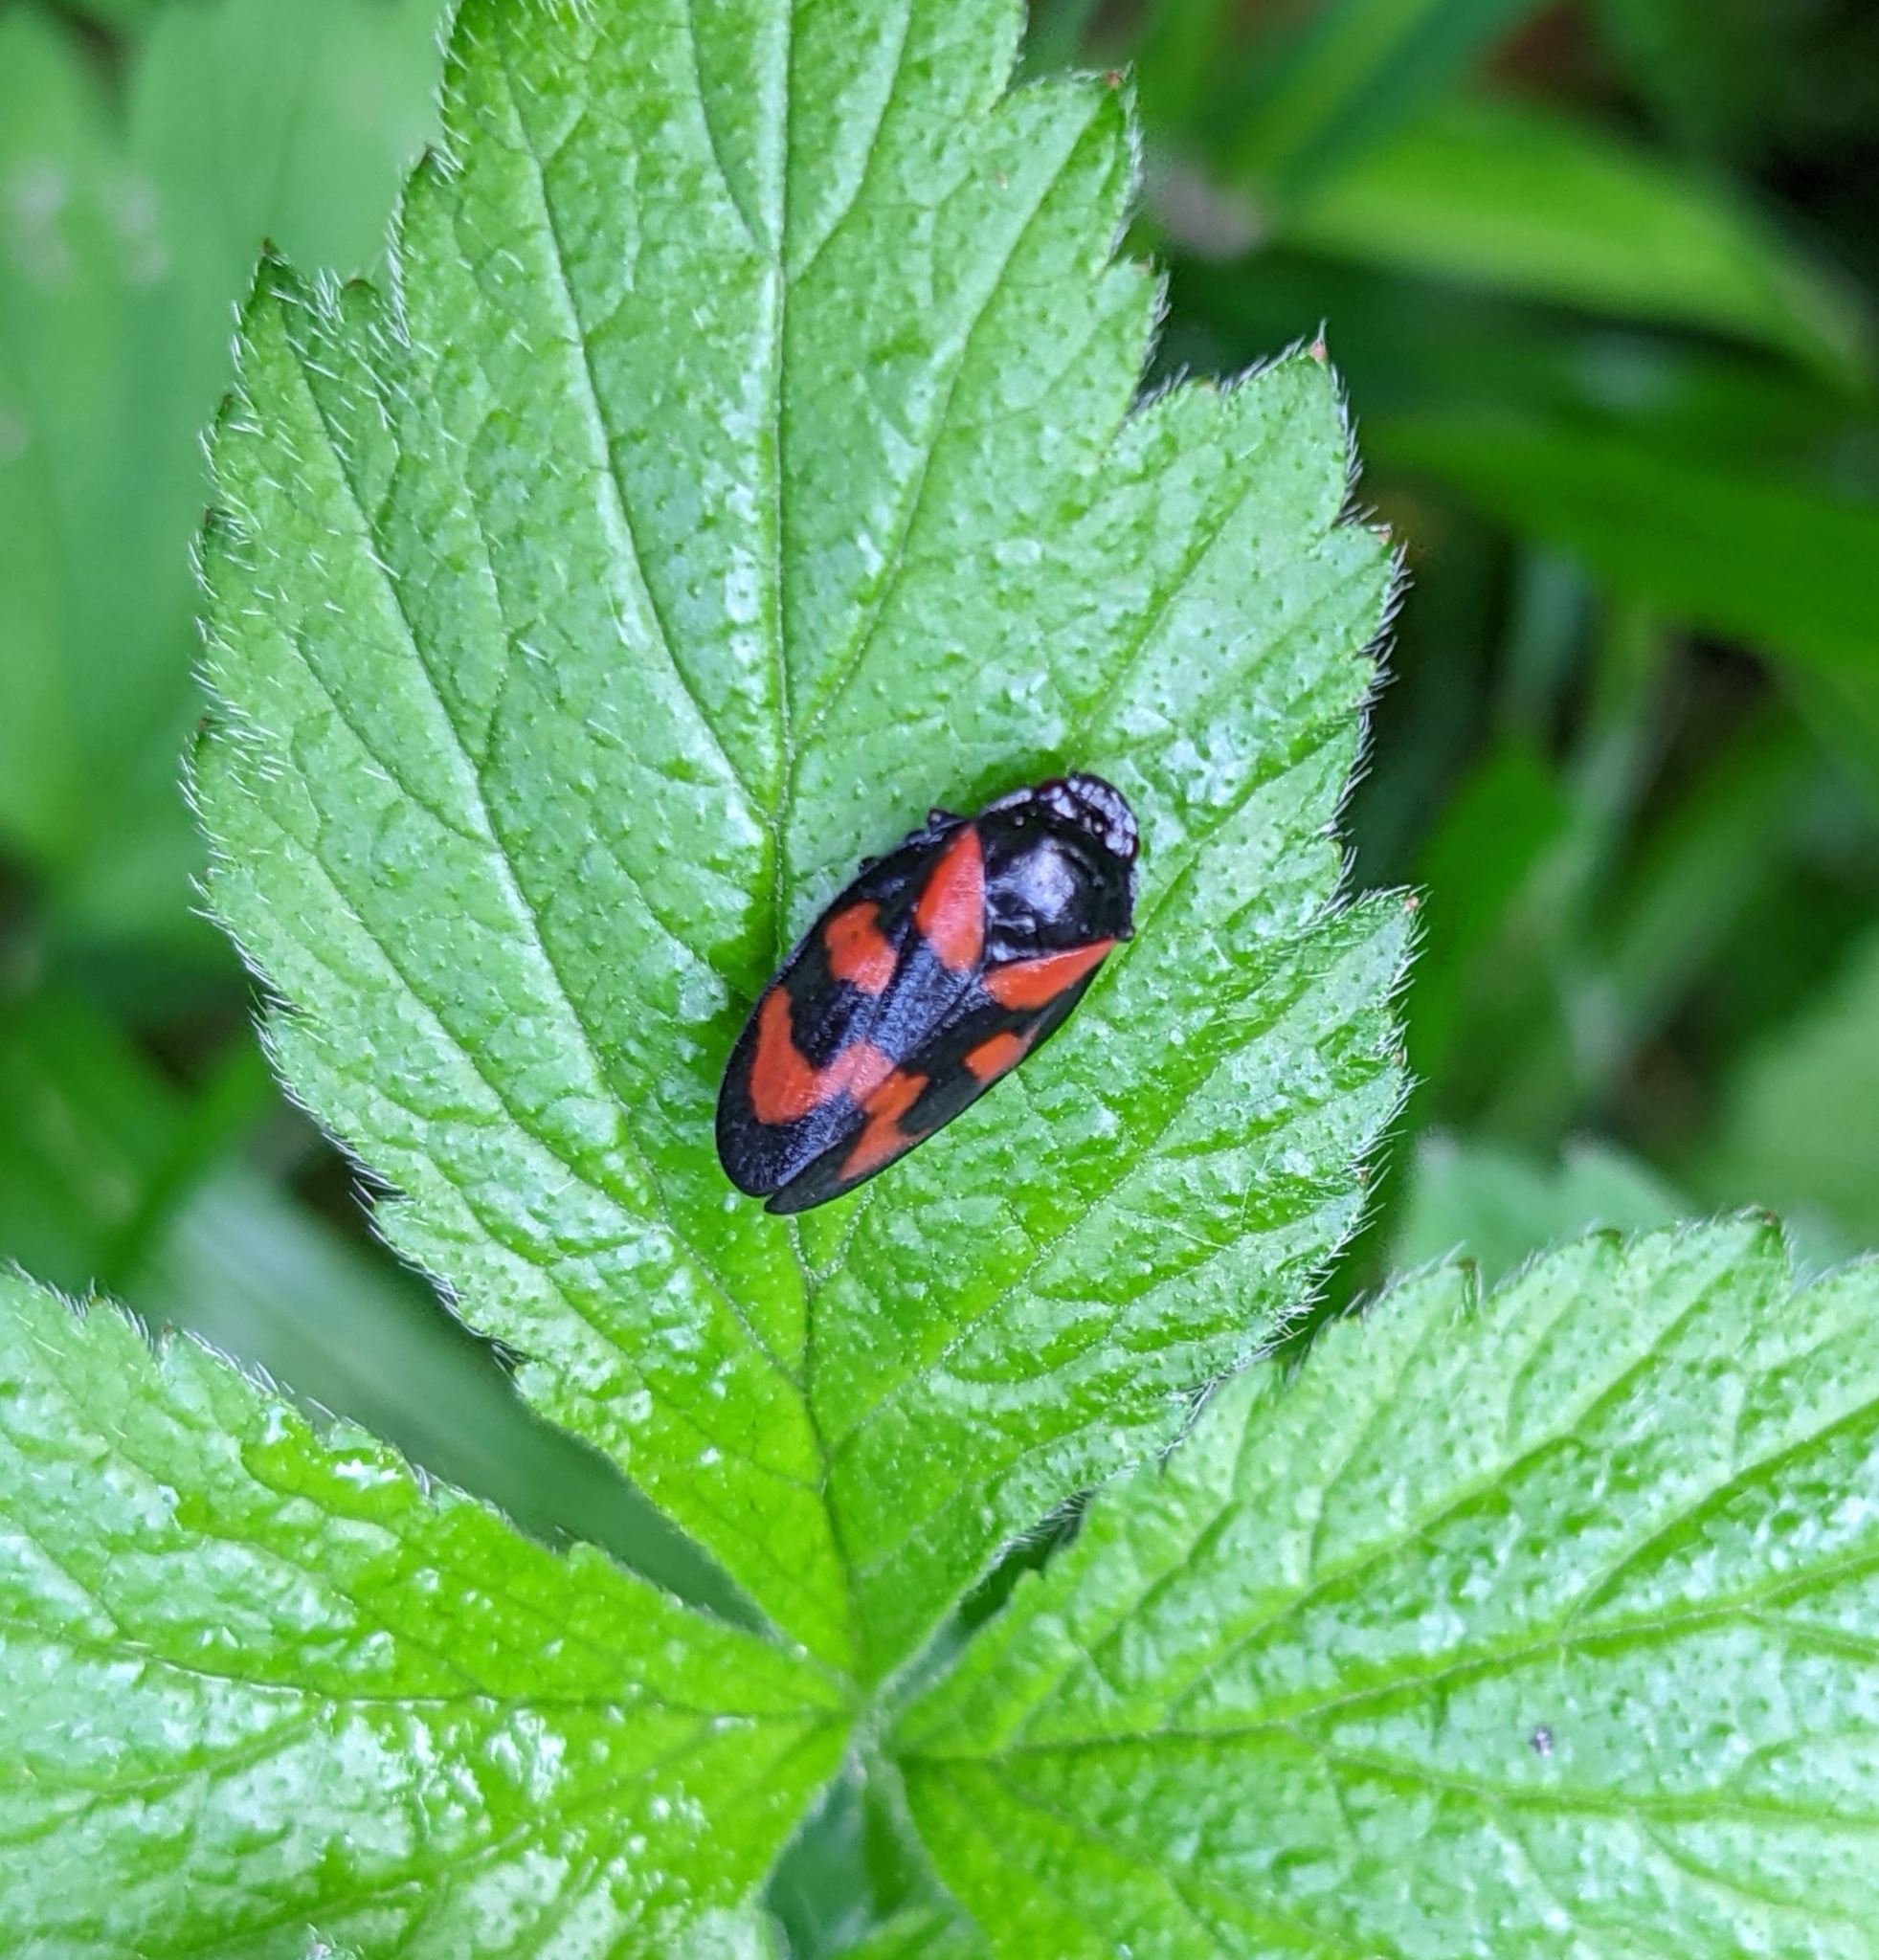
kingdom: Animalia
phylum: Arthropoda
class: Insecta
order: Hemiptera
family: Cercopidae
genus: Cercopis
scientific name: Cercopis vulnerata
